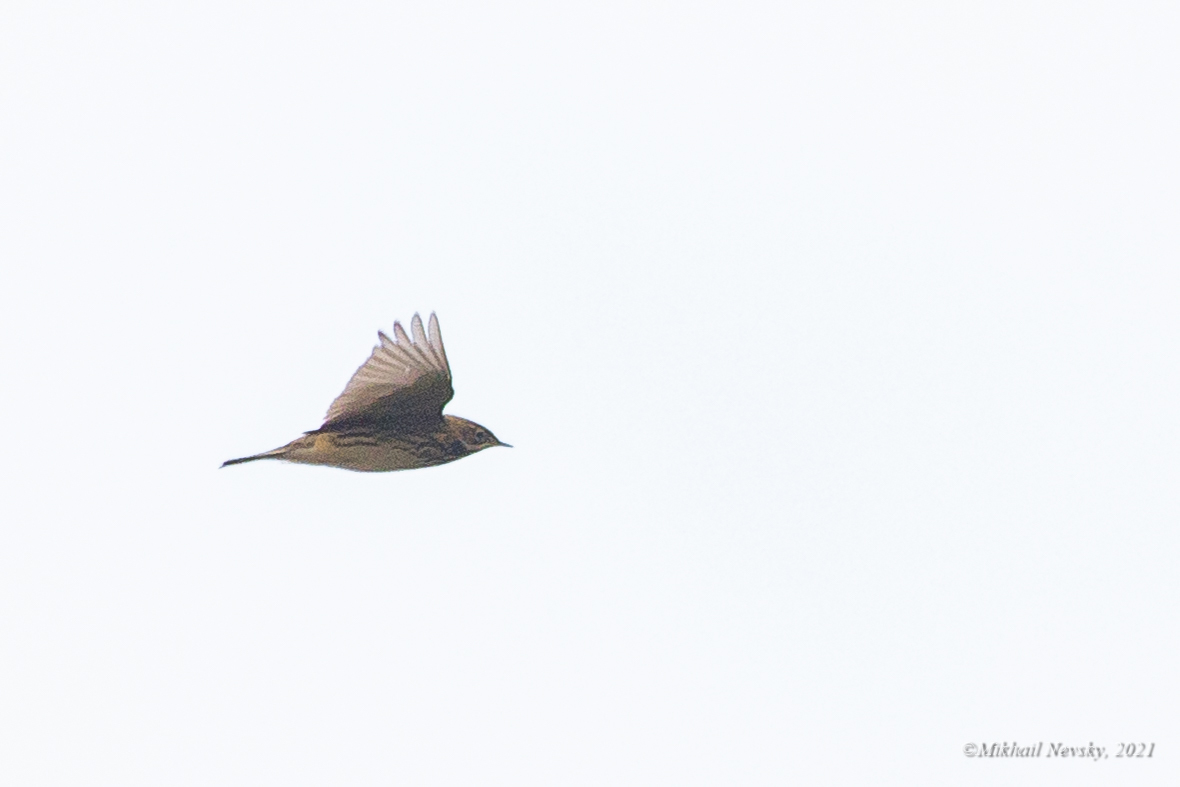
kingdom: Animalia
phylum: Chordata
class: Aves
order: Passeriformes
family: Motacillidae
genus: Anthus
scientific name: Anthus cervinus
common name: Red-throated pipit
